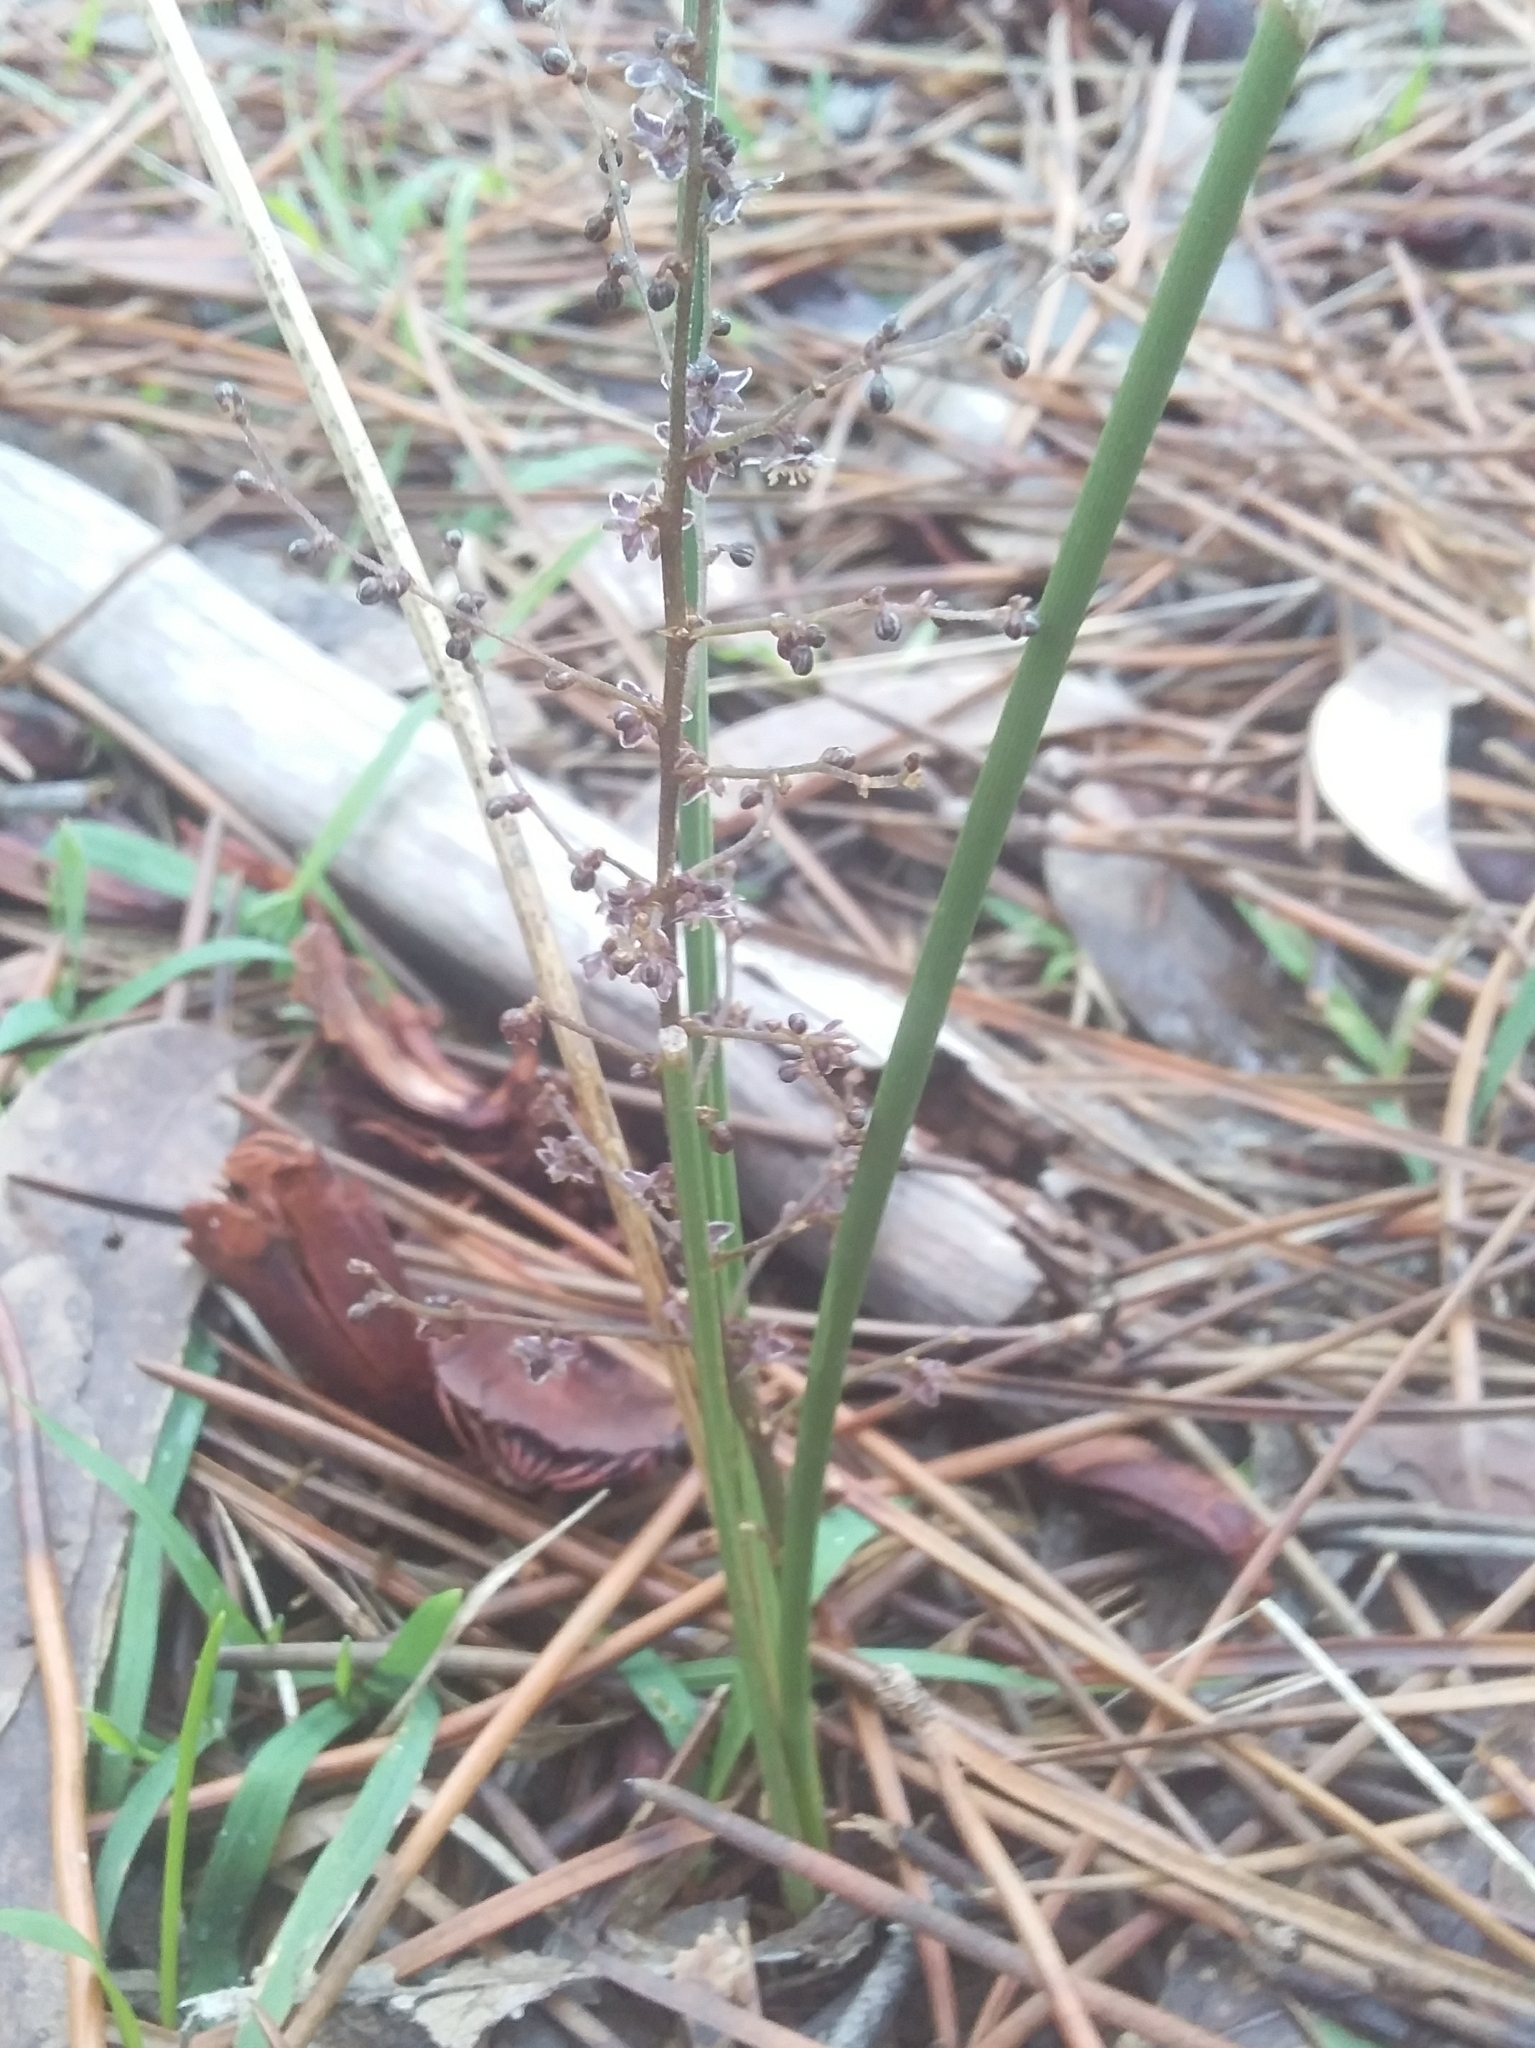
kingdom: Plantae
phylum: Tracheophyta
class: Liliopsida
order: Asparagales
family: Asparagaceae
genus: Lomandra
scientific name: Lomandra micrantha
